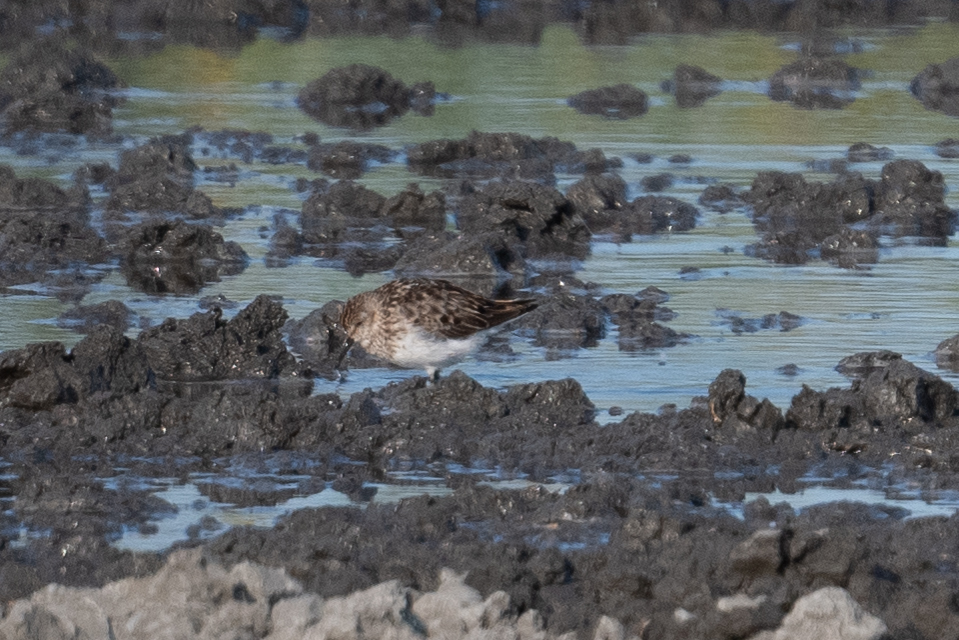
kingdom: Animalia
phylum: Chordata
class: Aves
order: Charadriiformes
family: Scolopacidae
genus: Calidris
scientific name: Calidris minutilla
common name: Least sandpiper
